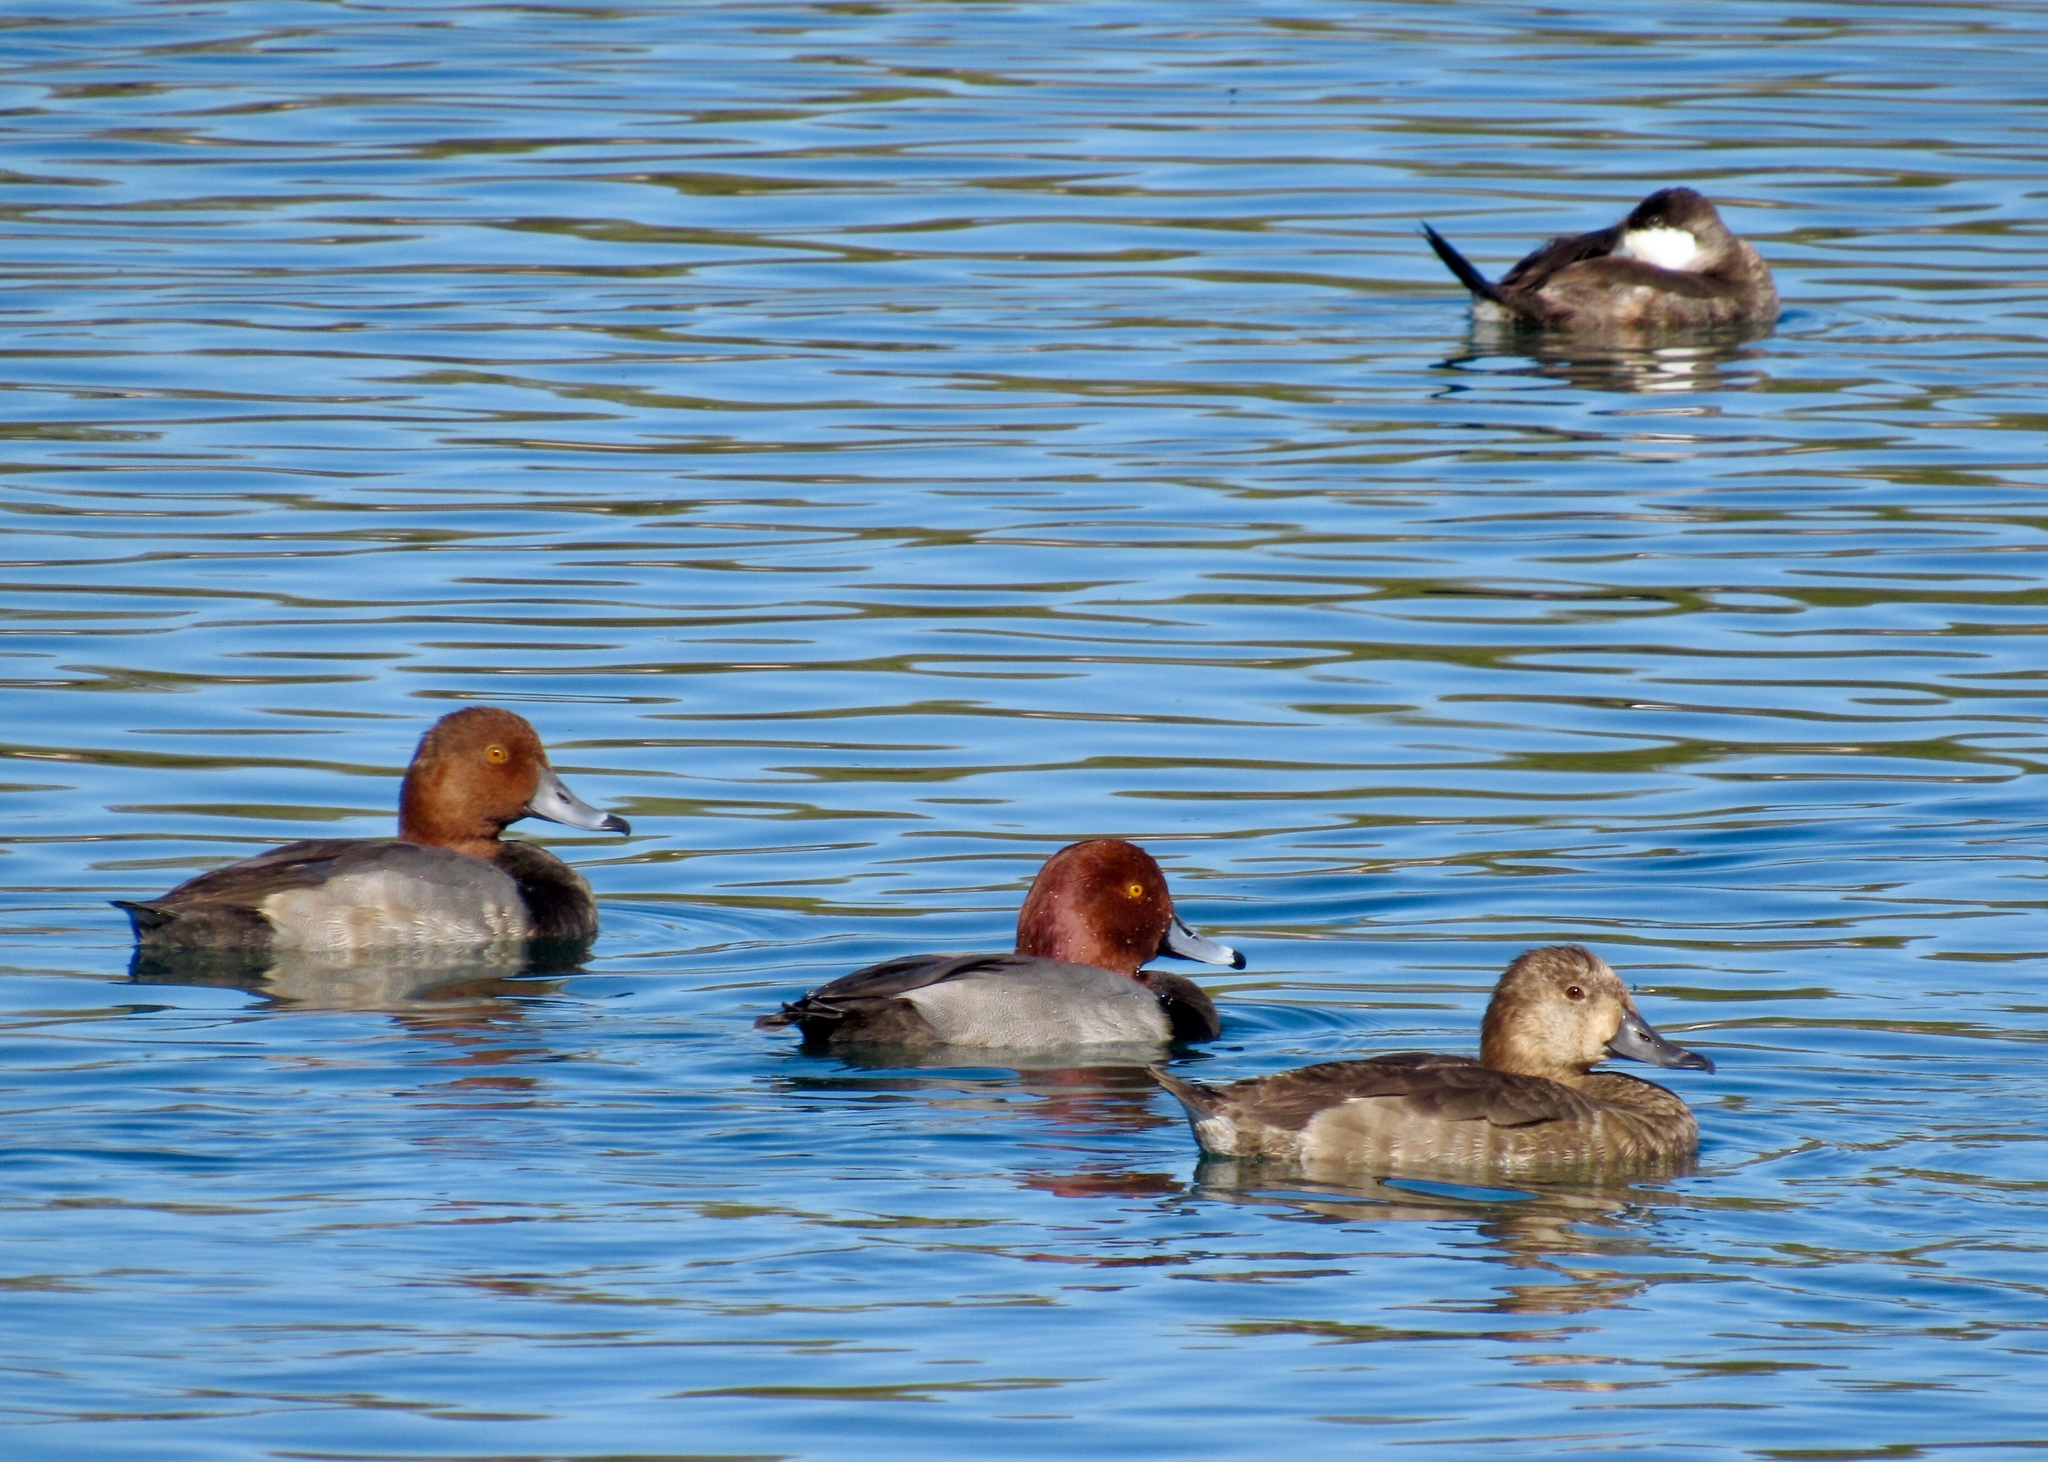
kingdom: Animalia
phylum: Chordata
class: Aves
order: Anseriformes
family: Anatidae
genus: Aythya
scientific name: Aythya americana
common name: Redhead
